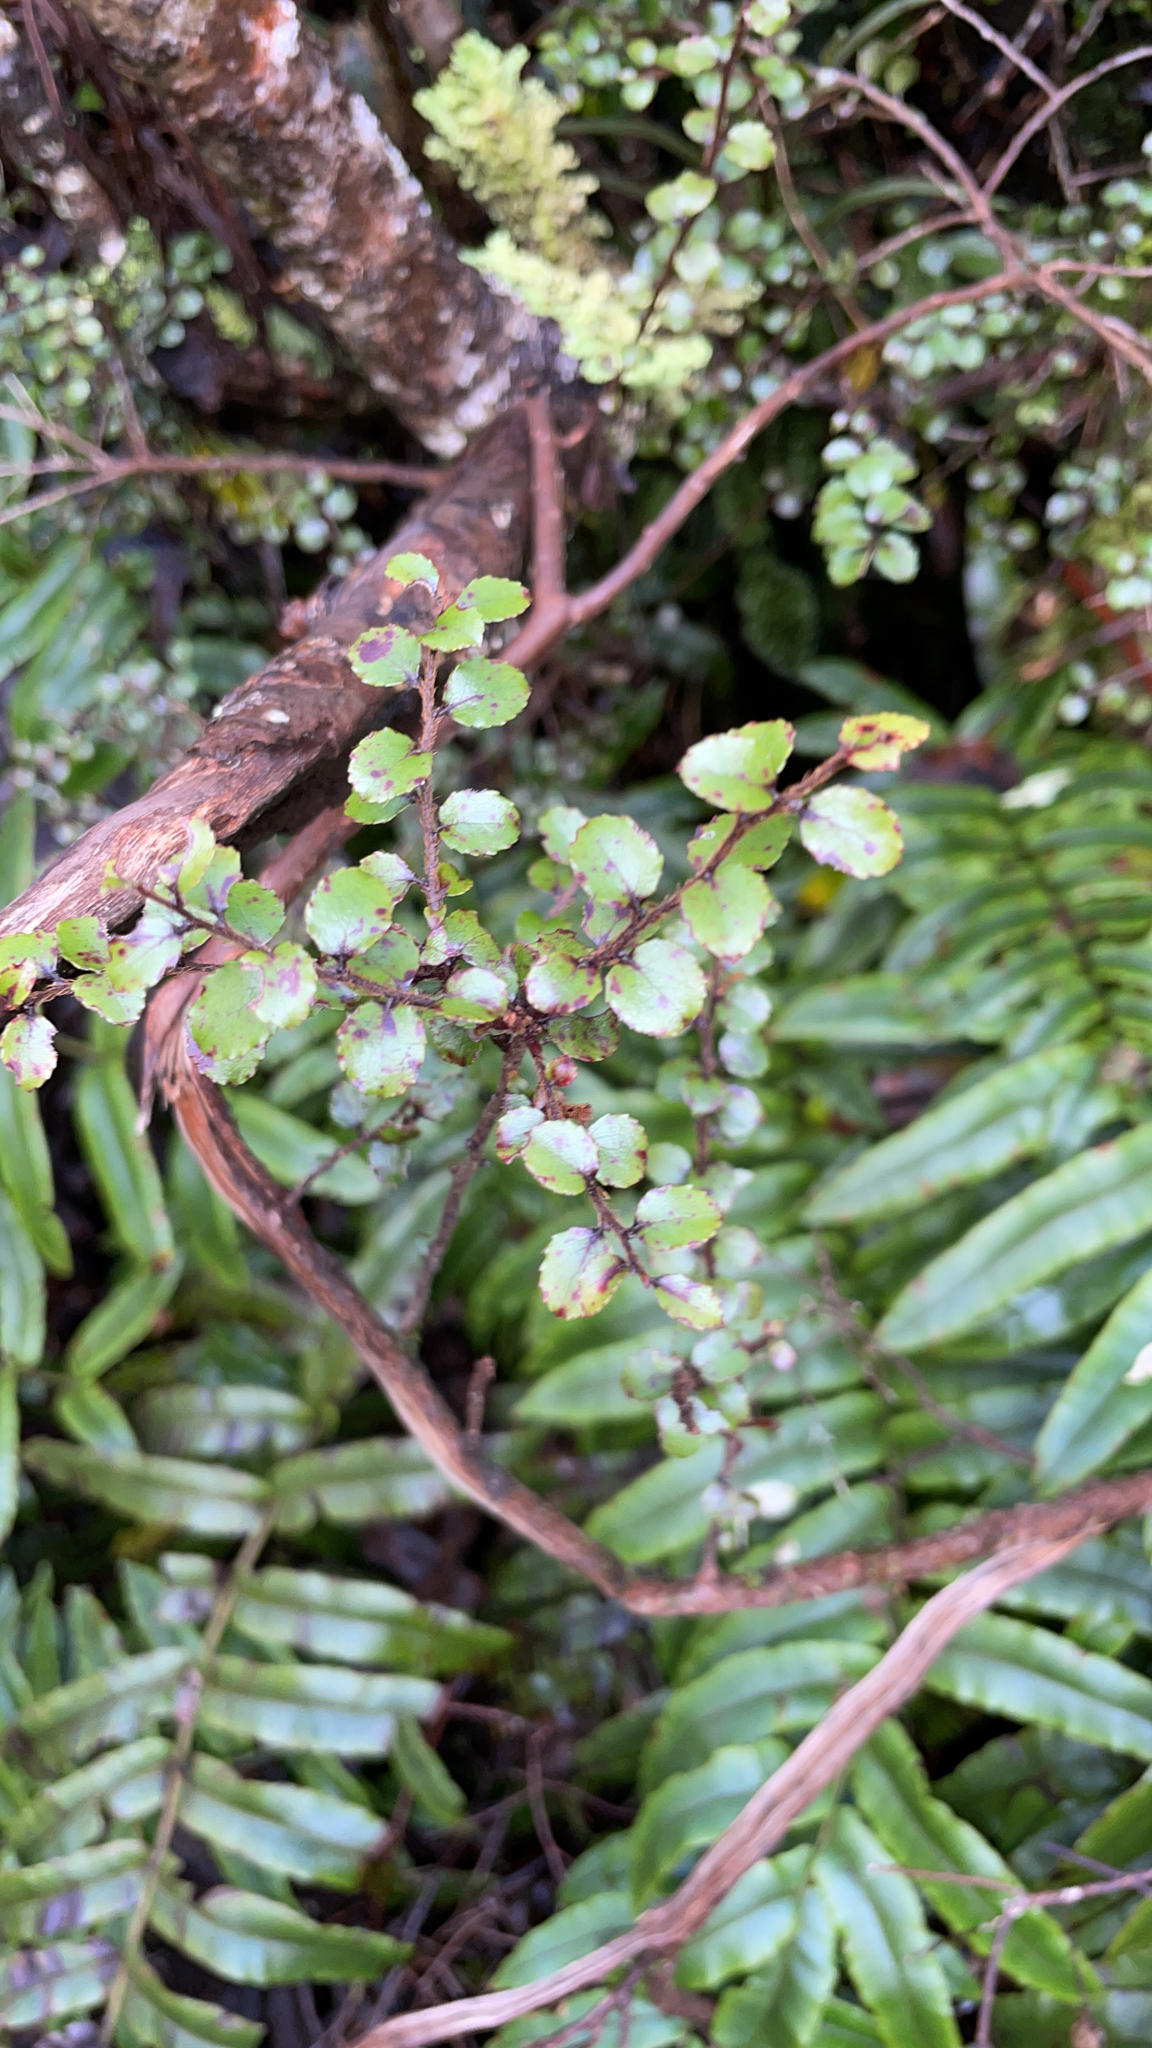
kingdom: Plantae
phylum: Tracheophyta
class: Magnoliopsida
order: Ericales
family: Ericaceae
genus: Gaultheria
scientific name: Gaultheria antipoda
